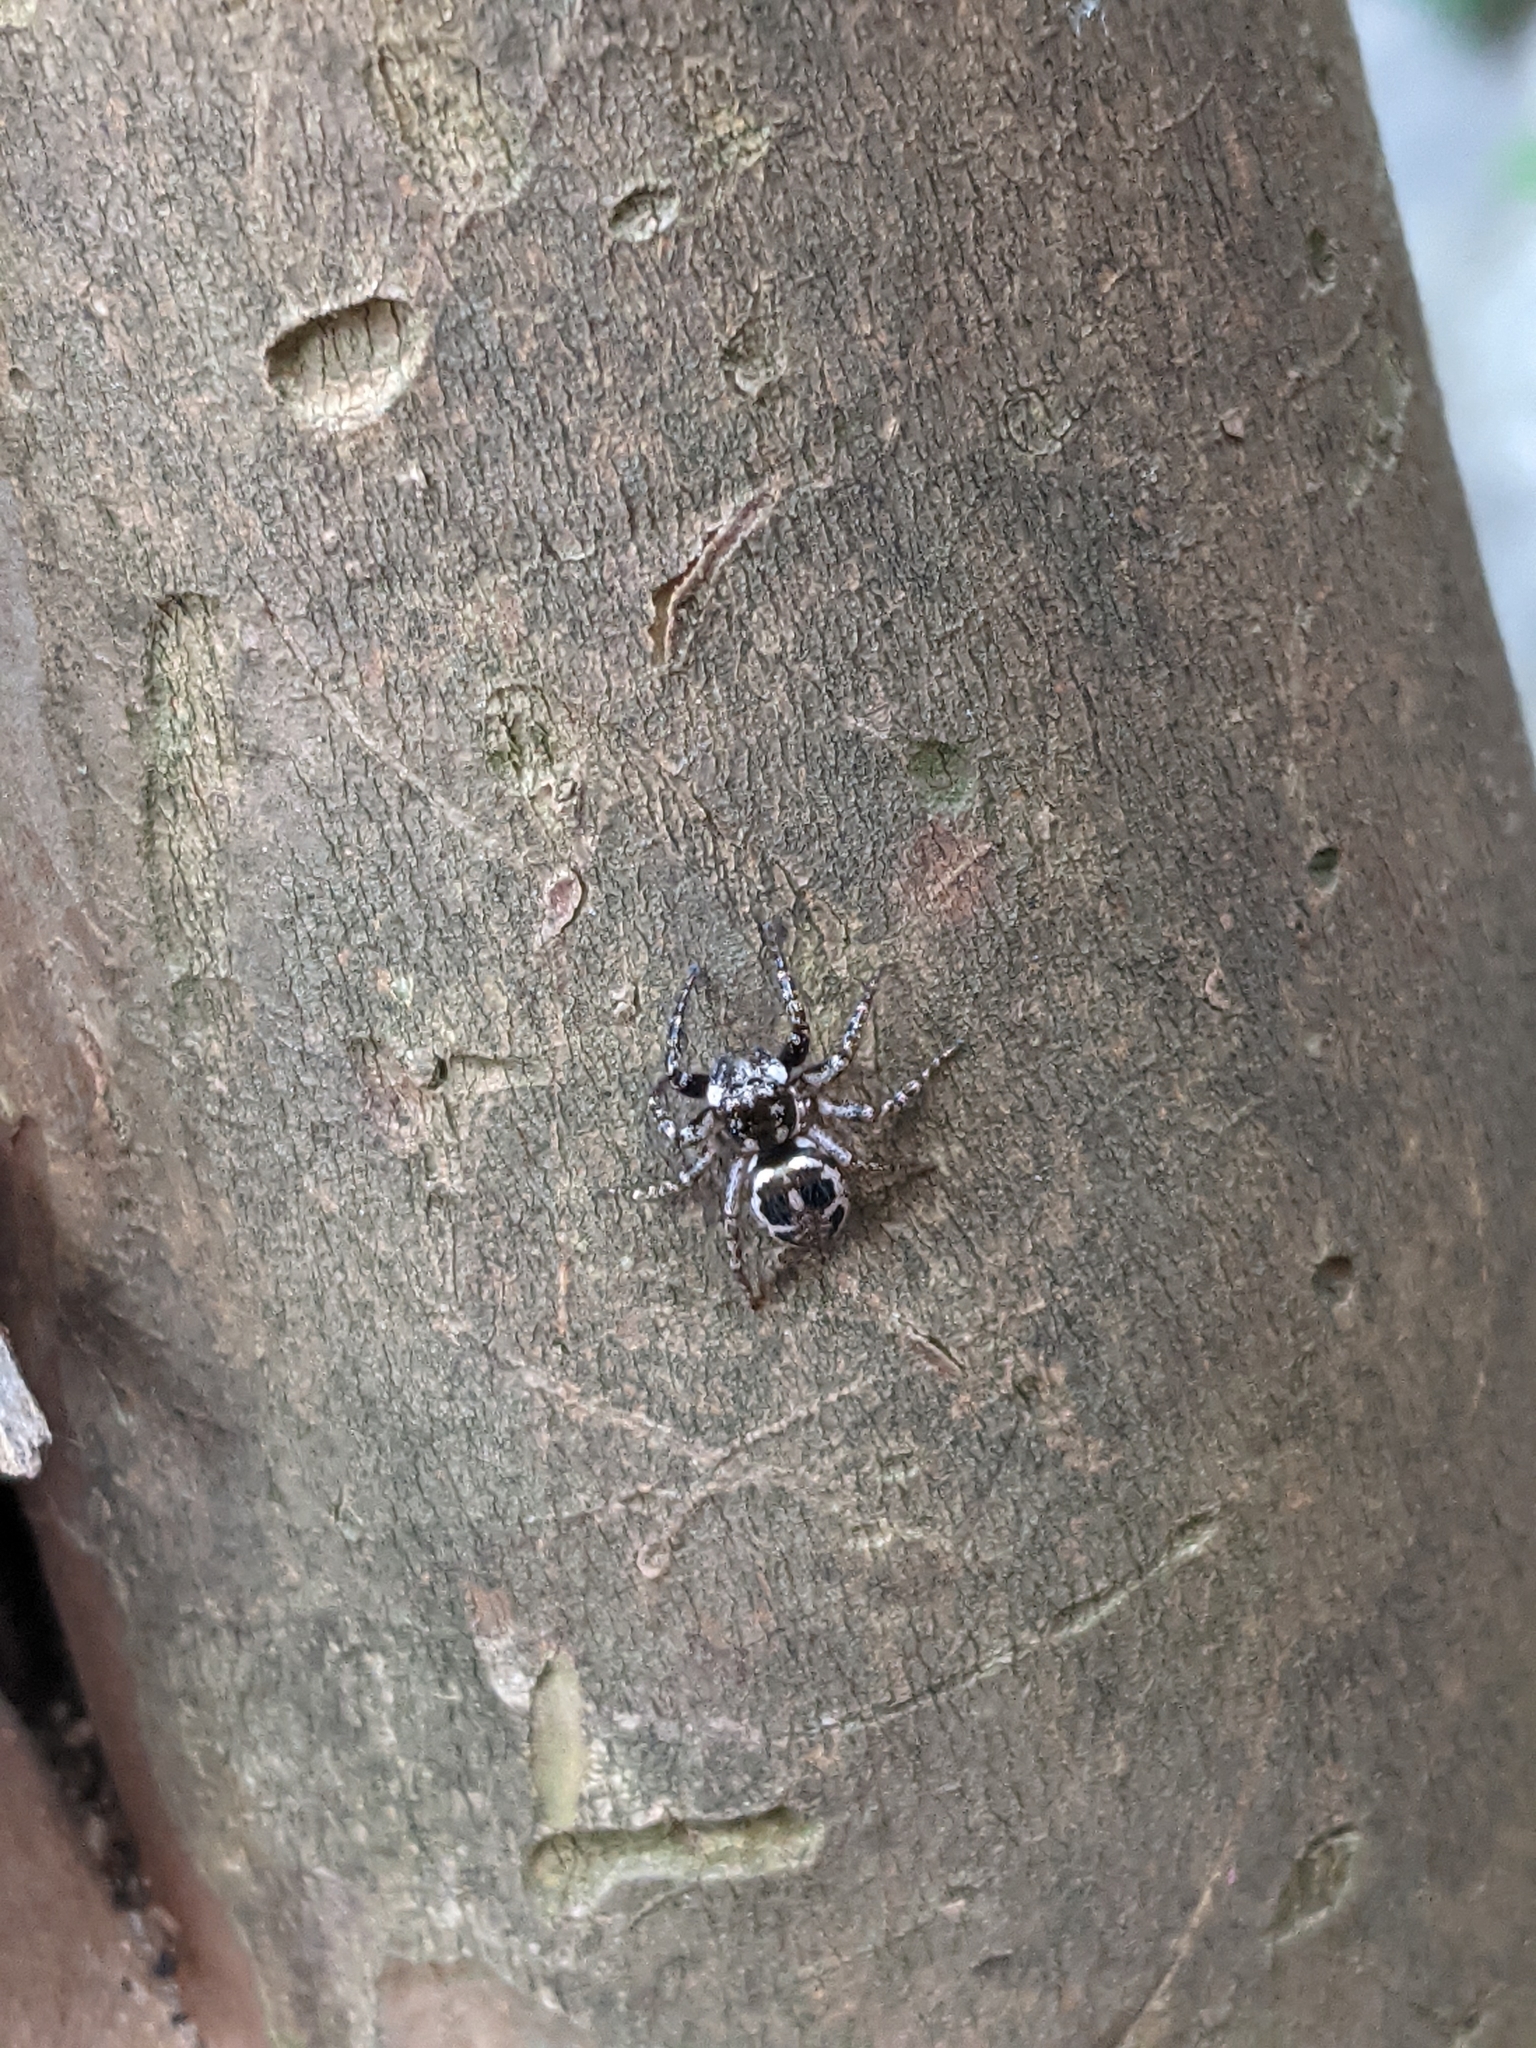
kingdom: Animalia
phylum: Arthropoda
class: Arachnida
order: Araneae
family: Salticidae
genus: Anasaitis
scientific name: Anasaitis canosa
